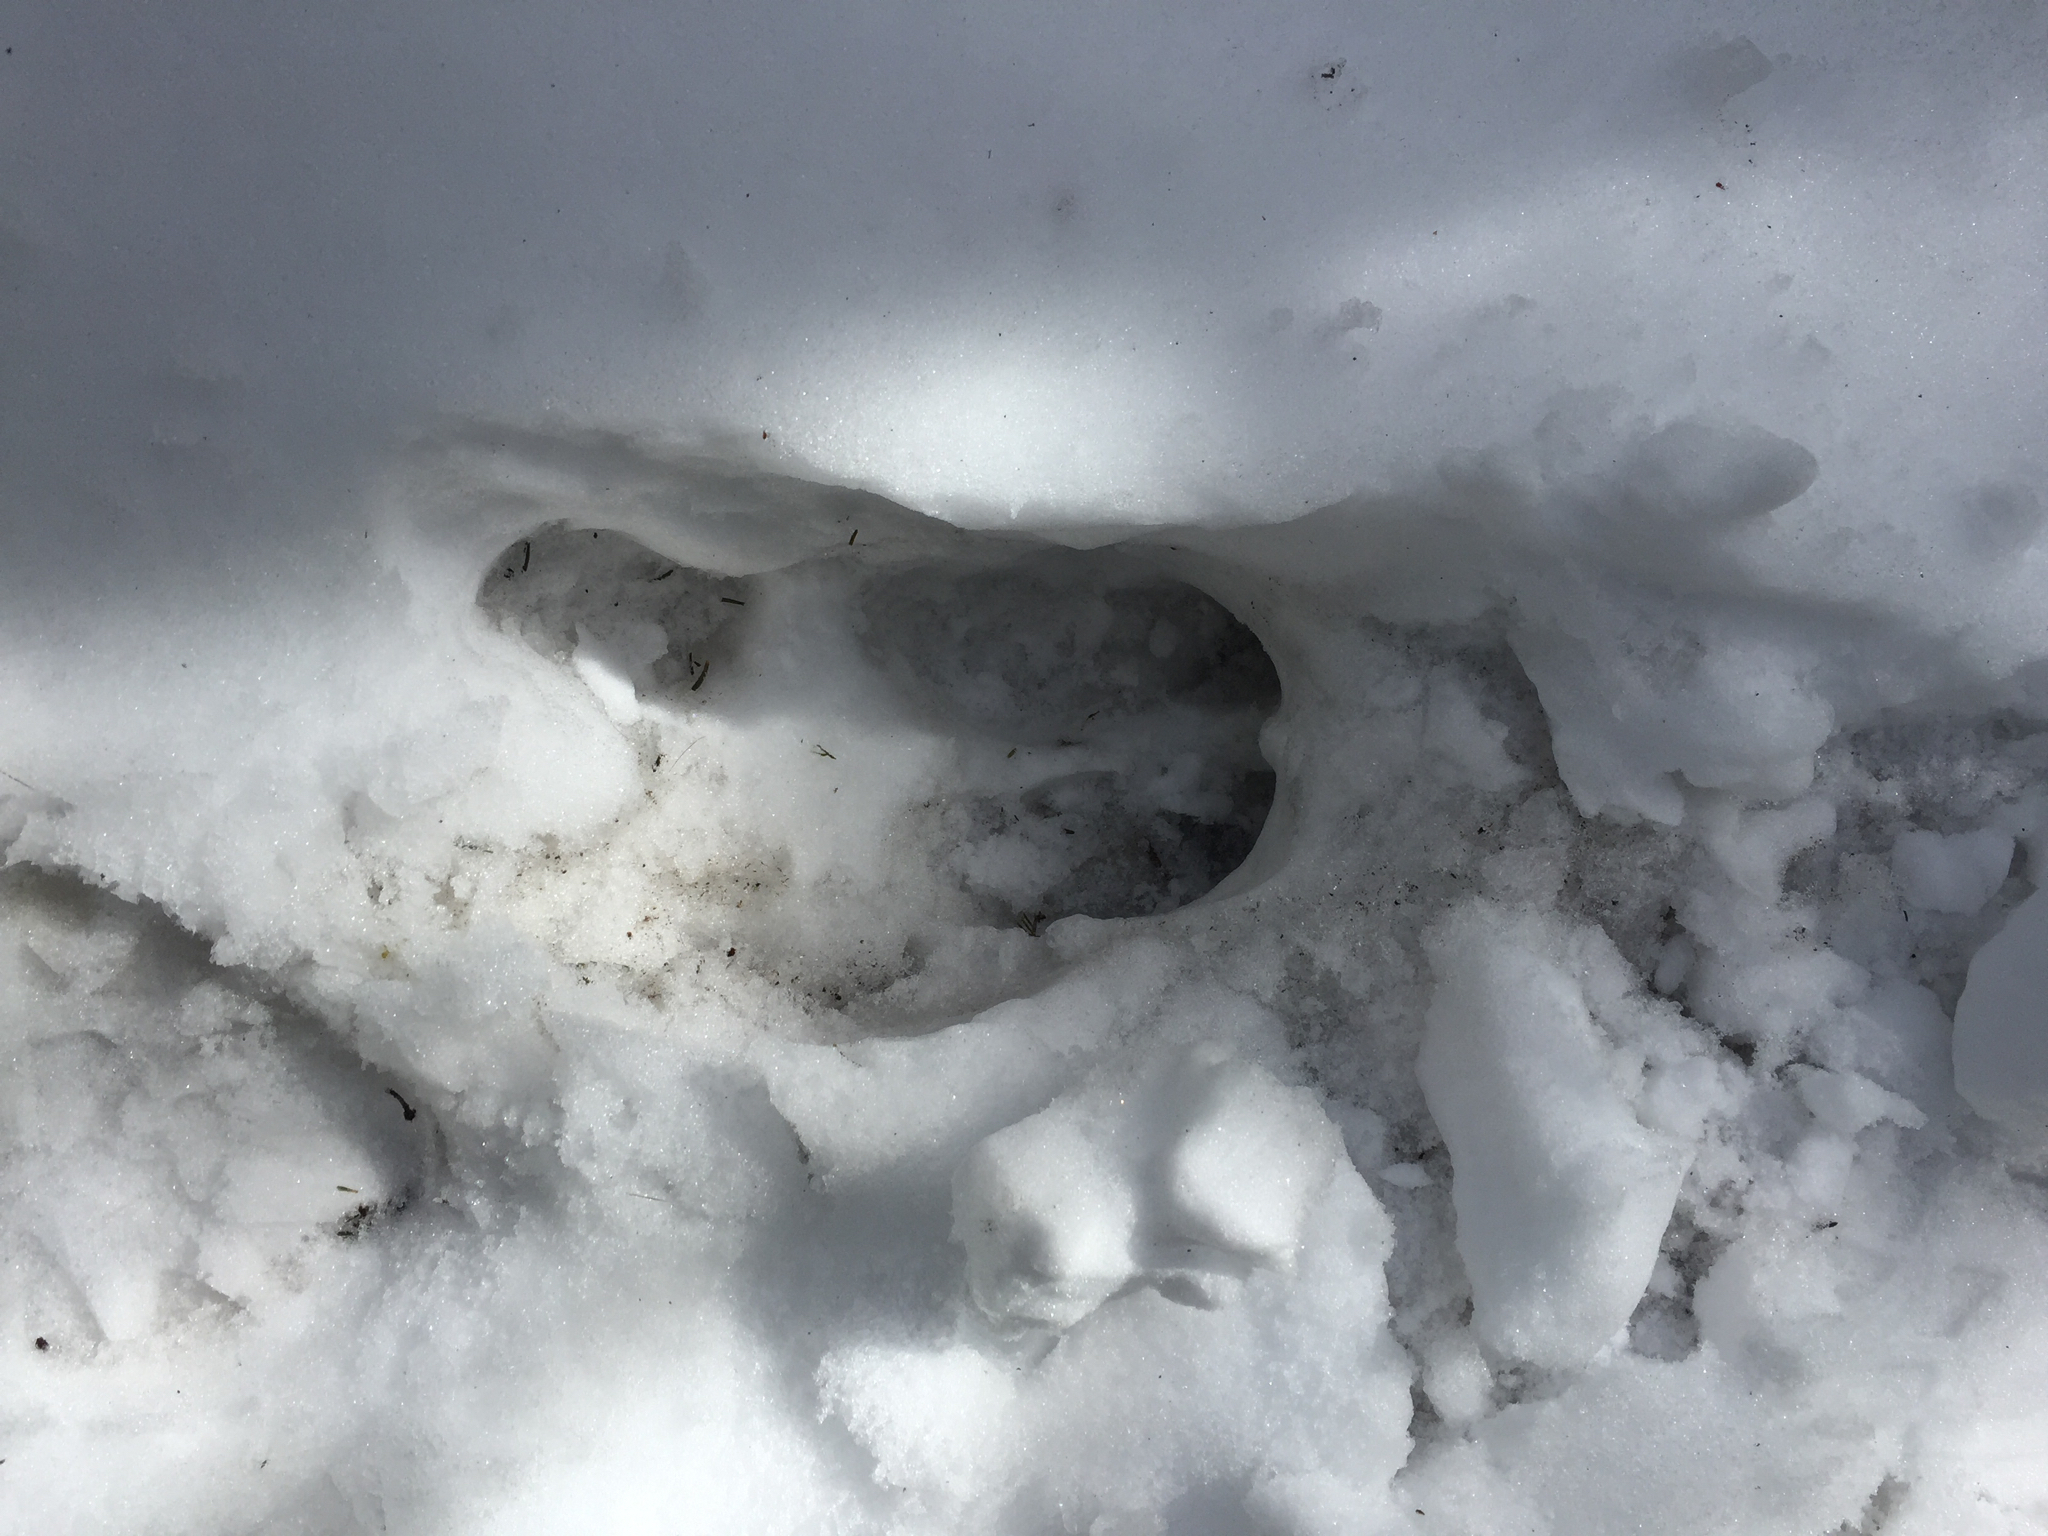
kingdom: Animalia
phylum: Chordata
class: Mammalia
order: Artiodactyla
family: Cervidae
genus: Alces
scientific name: Alces alces
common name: Moose
